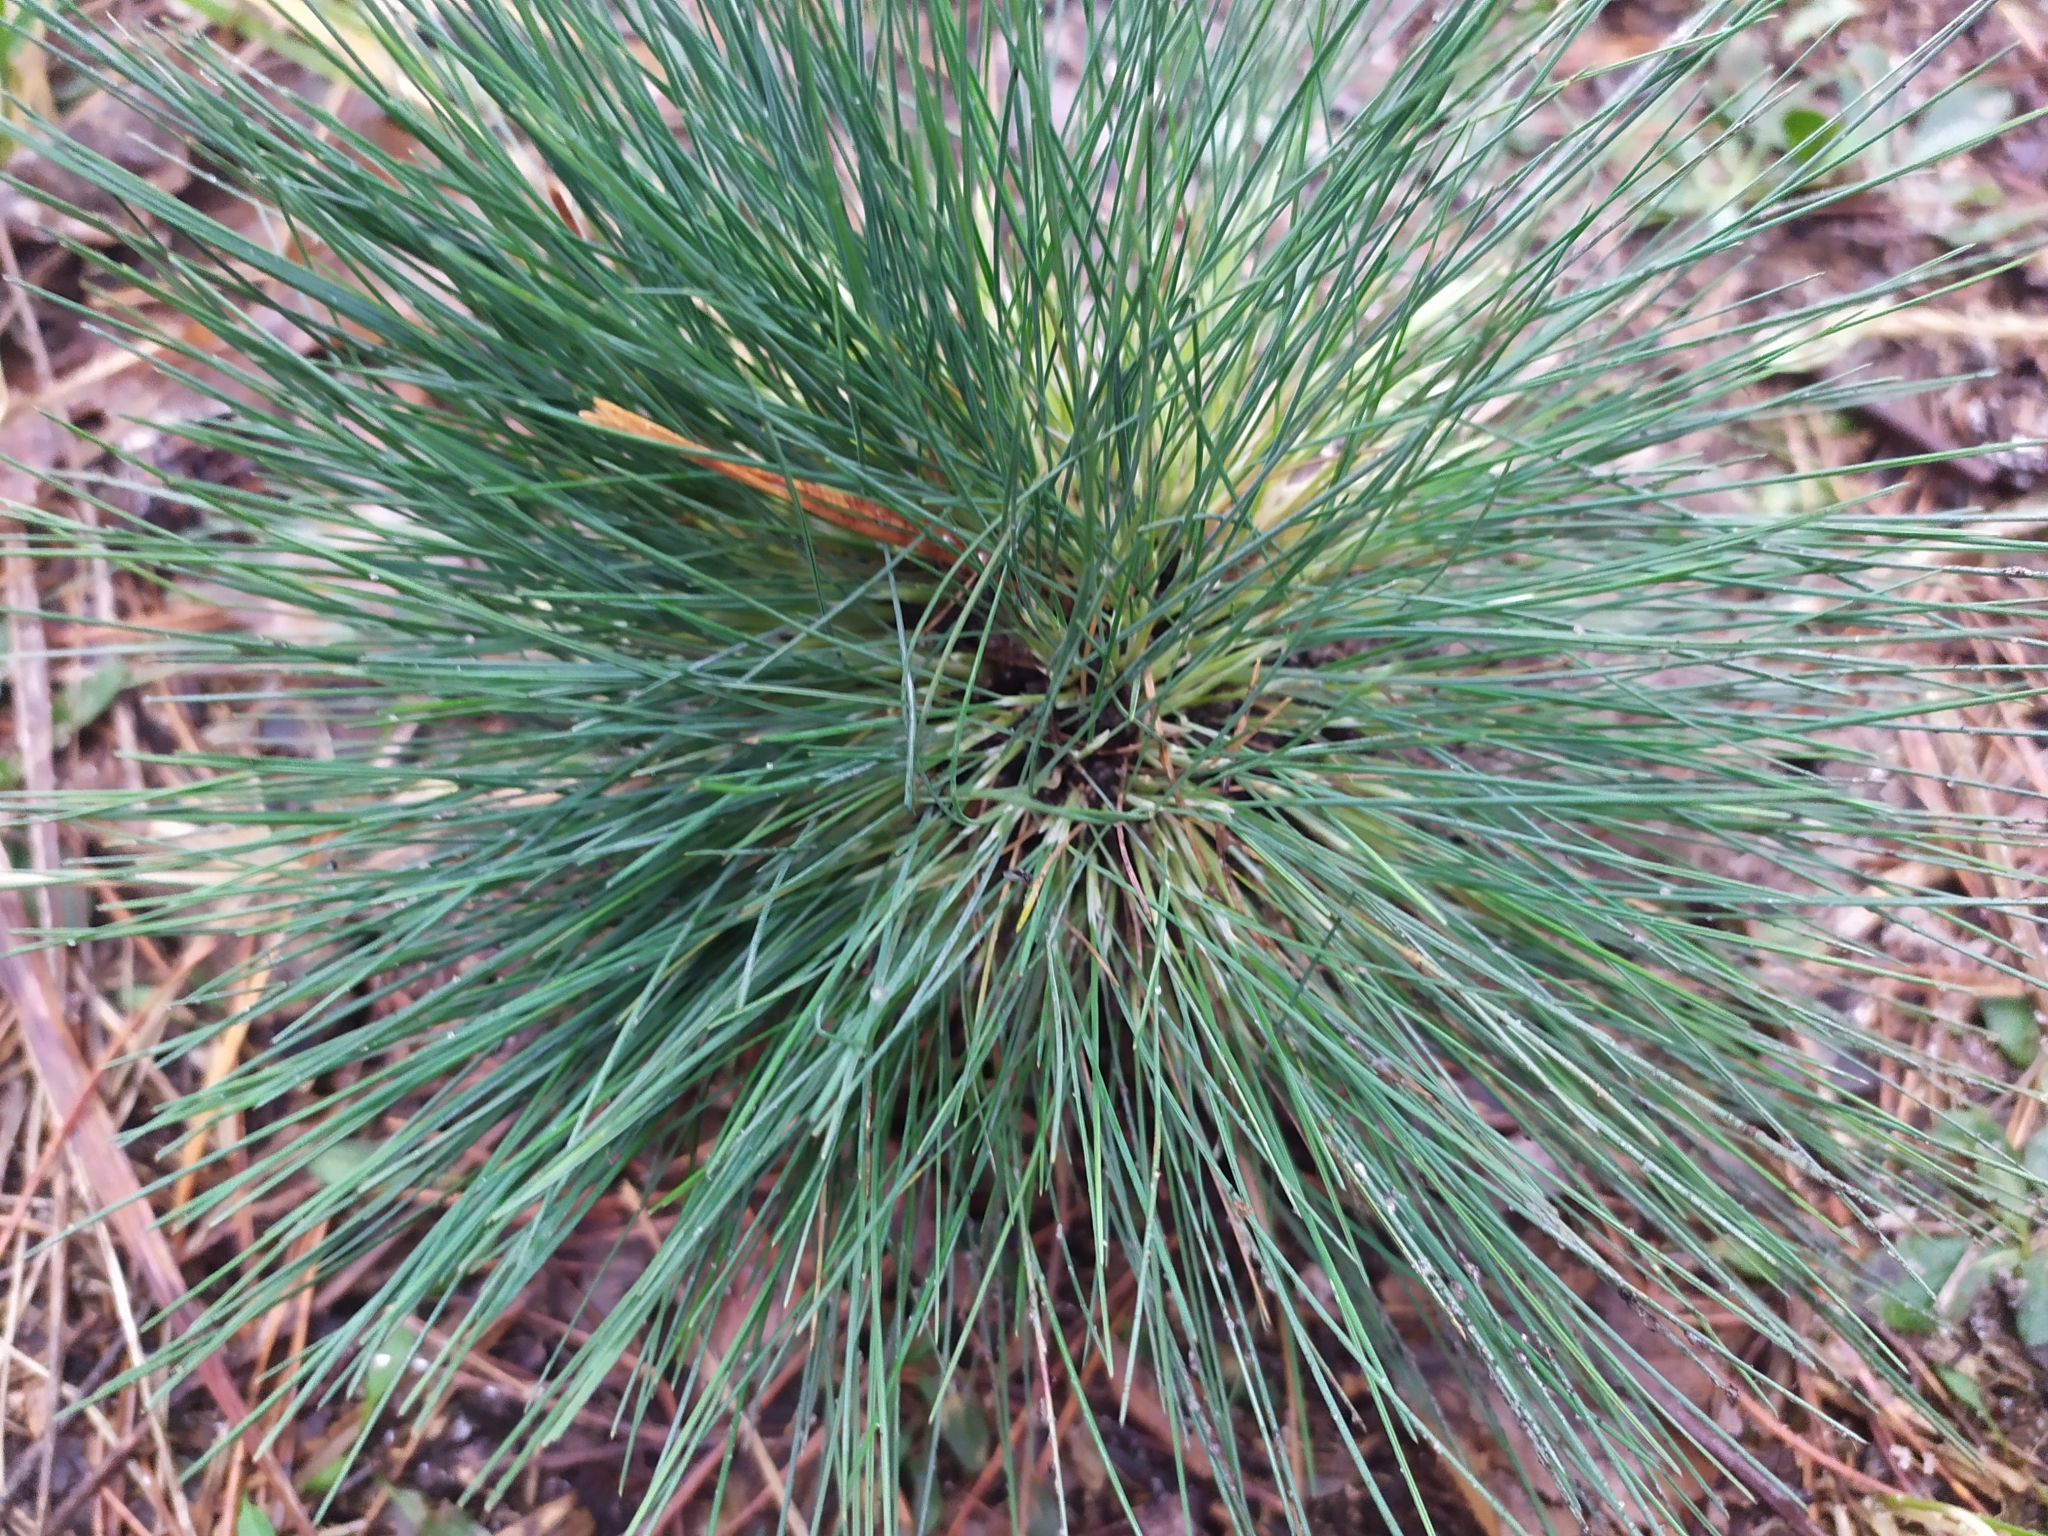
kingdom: Plantae
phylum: Tracheophyta
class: Liliopsida
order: Poales
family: Poaceae
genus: Corynephorus
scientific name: Corynephorus canescens
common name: Grey hair-grass
